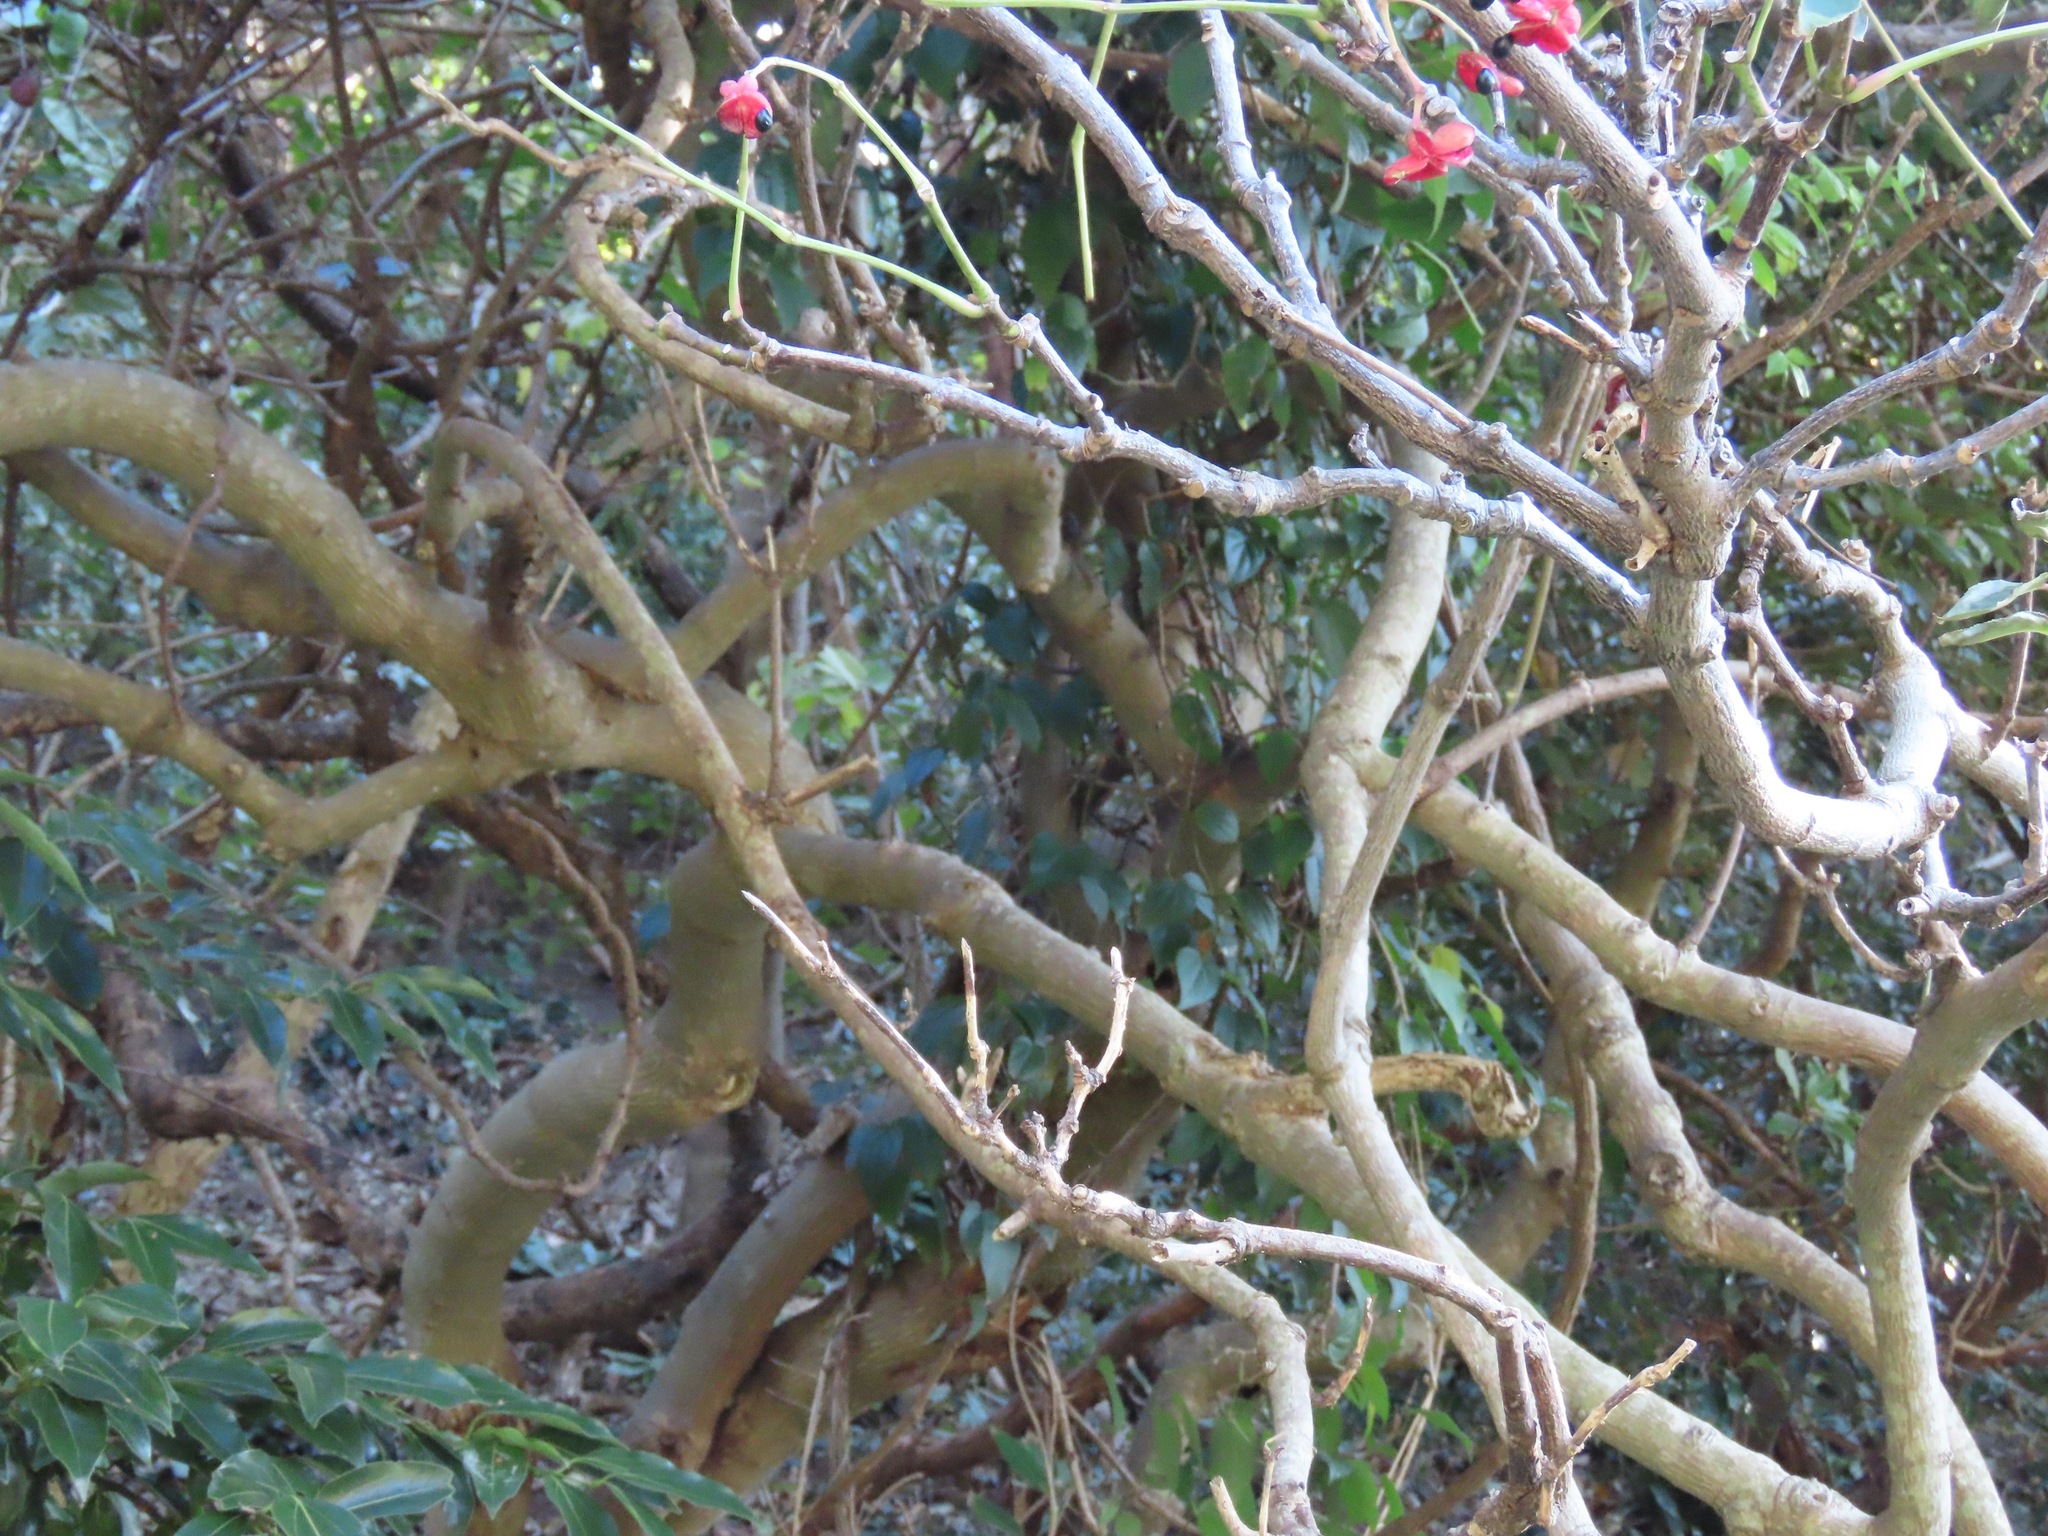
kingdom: Plantae
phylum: Tracheophyta
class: Magnoliopsida
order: Crossosomatales
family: Staphyleaceae
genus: Staphylea
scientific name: Staphylea japonica
